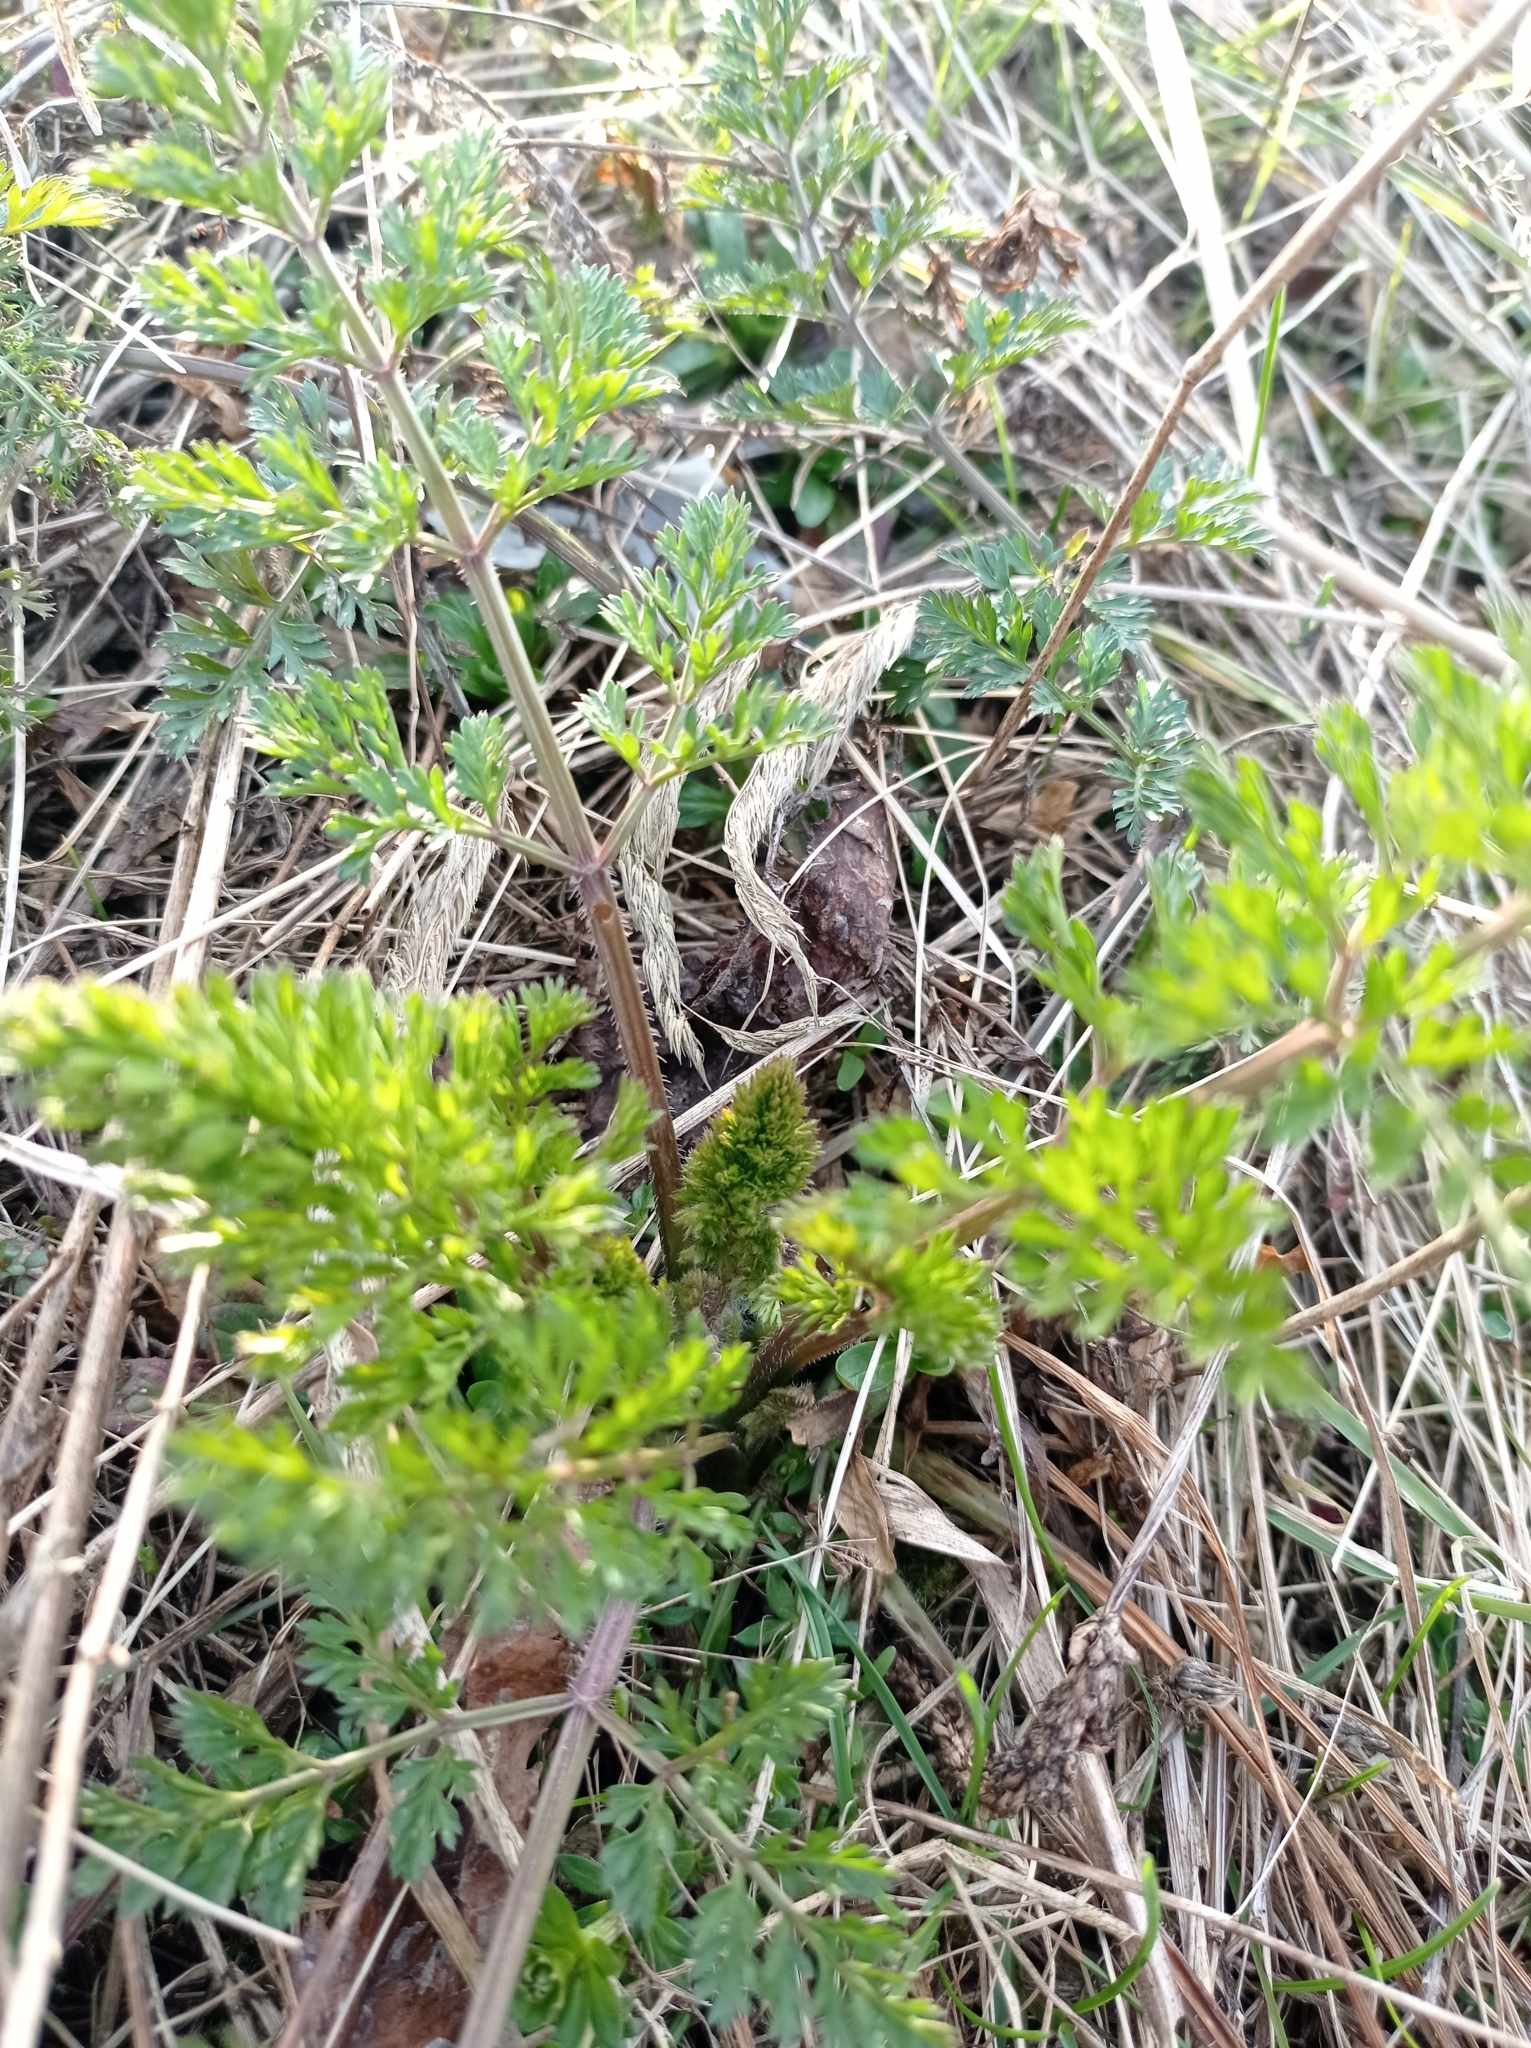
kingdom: Plantae
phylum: Tracheophyta
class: Magnoliopsida
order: Apiales
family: Apiaceae
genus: Daucus
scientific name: Daucus carota
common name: Wild carrot
